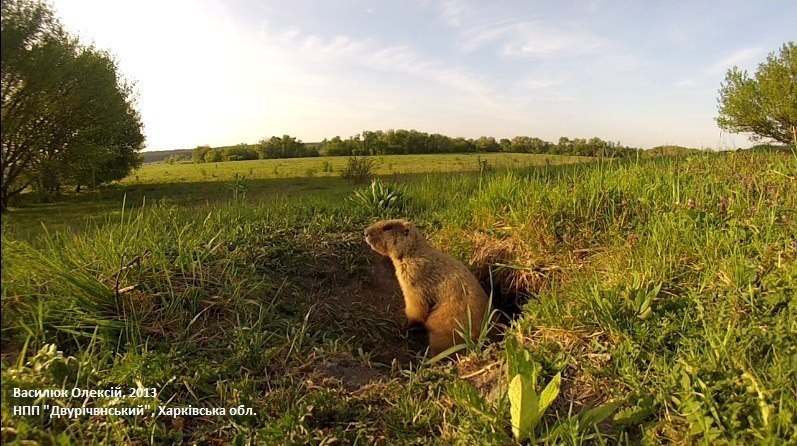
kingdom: Animalia
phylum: Chordata
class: Mammalia
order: Rodentia
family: Sciuridae
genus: Marmota
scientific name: Marmota bobak
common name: Bobak marmot
